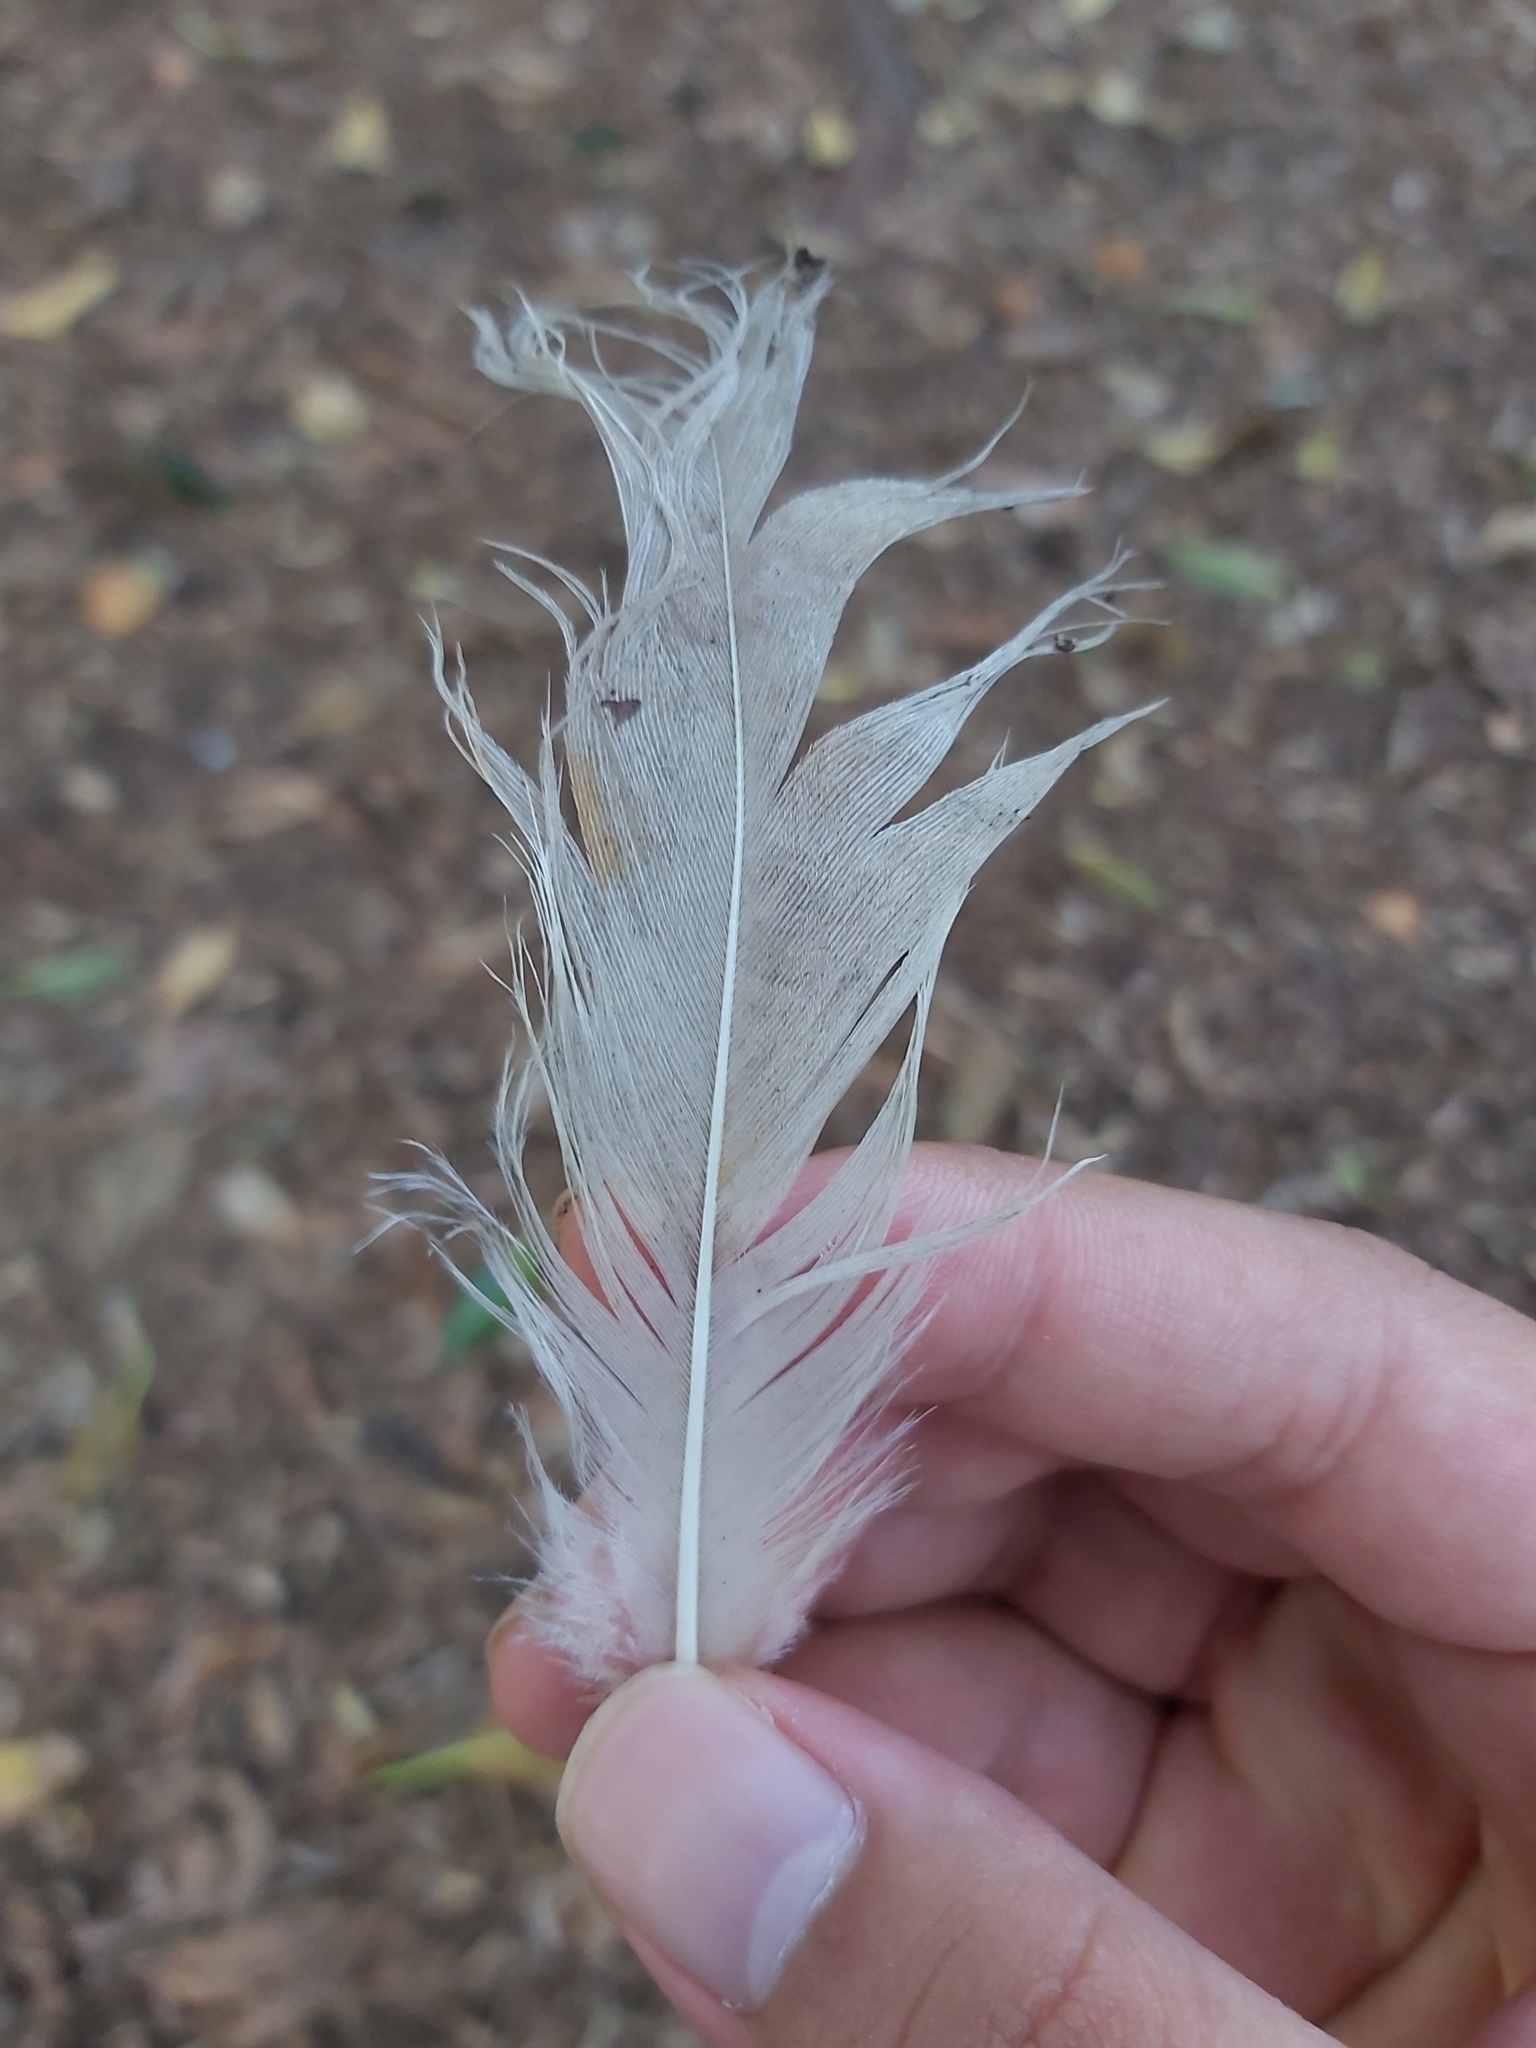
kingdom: Animalia
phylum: Chordata
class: Aves
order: Pelecaniformes
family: Threskiornithidae
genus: Threskiornis
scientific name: Threskiornis molucca
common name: Australian white ibis
